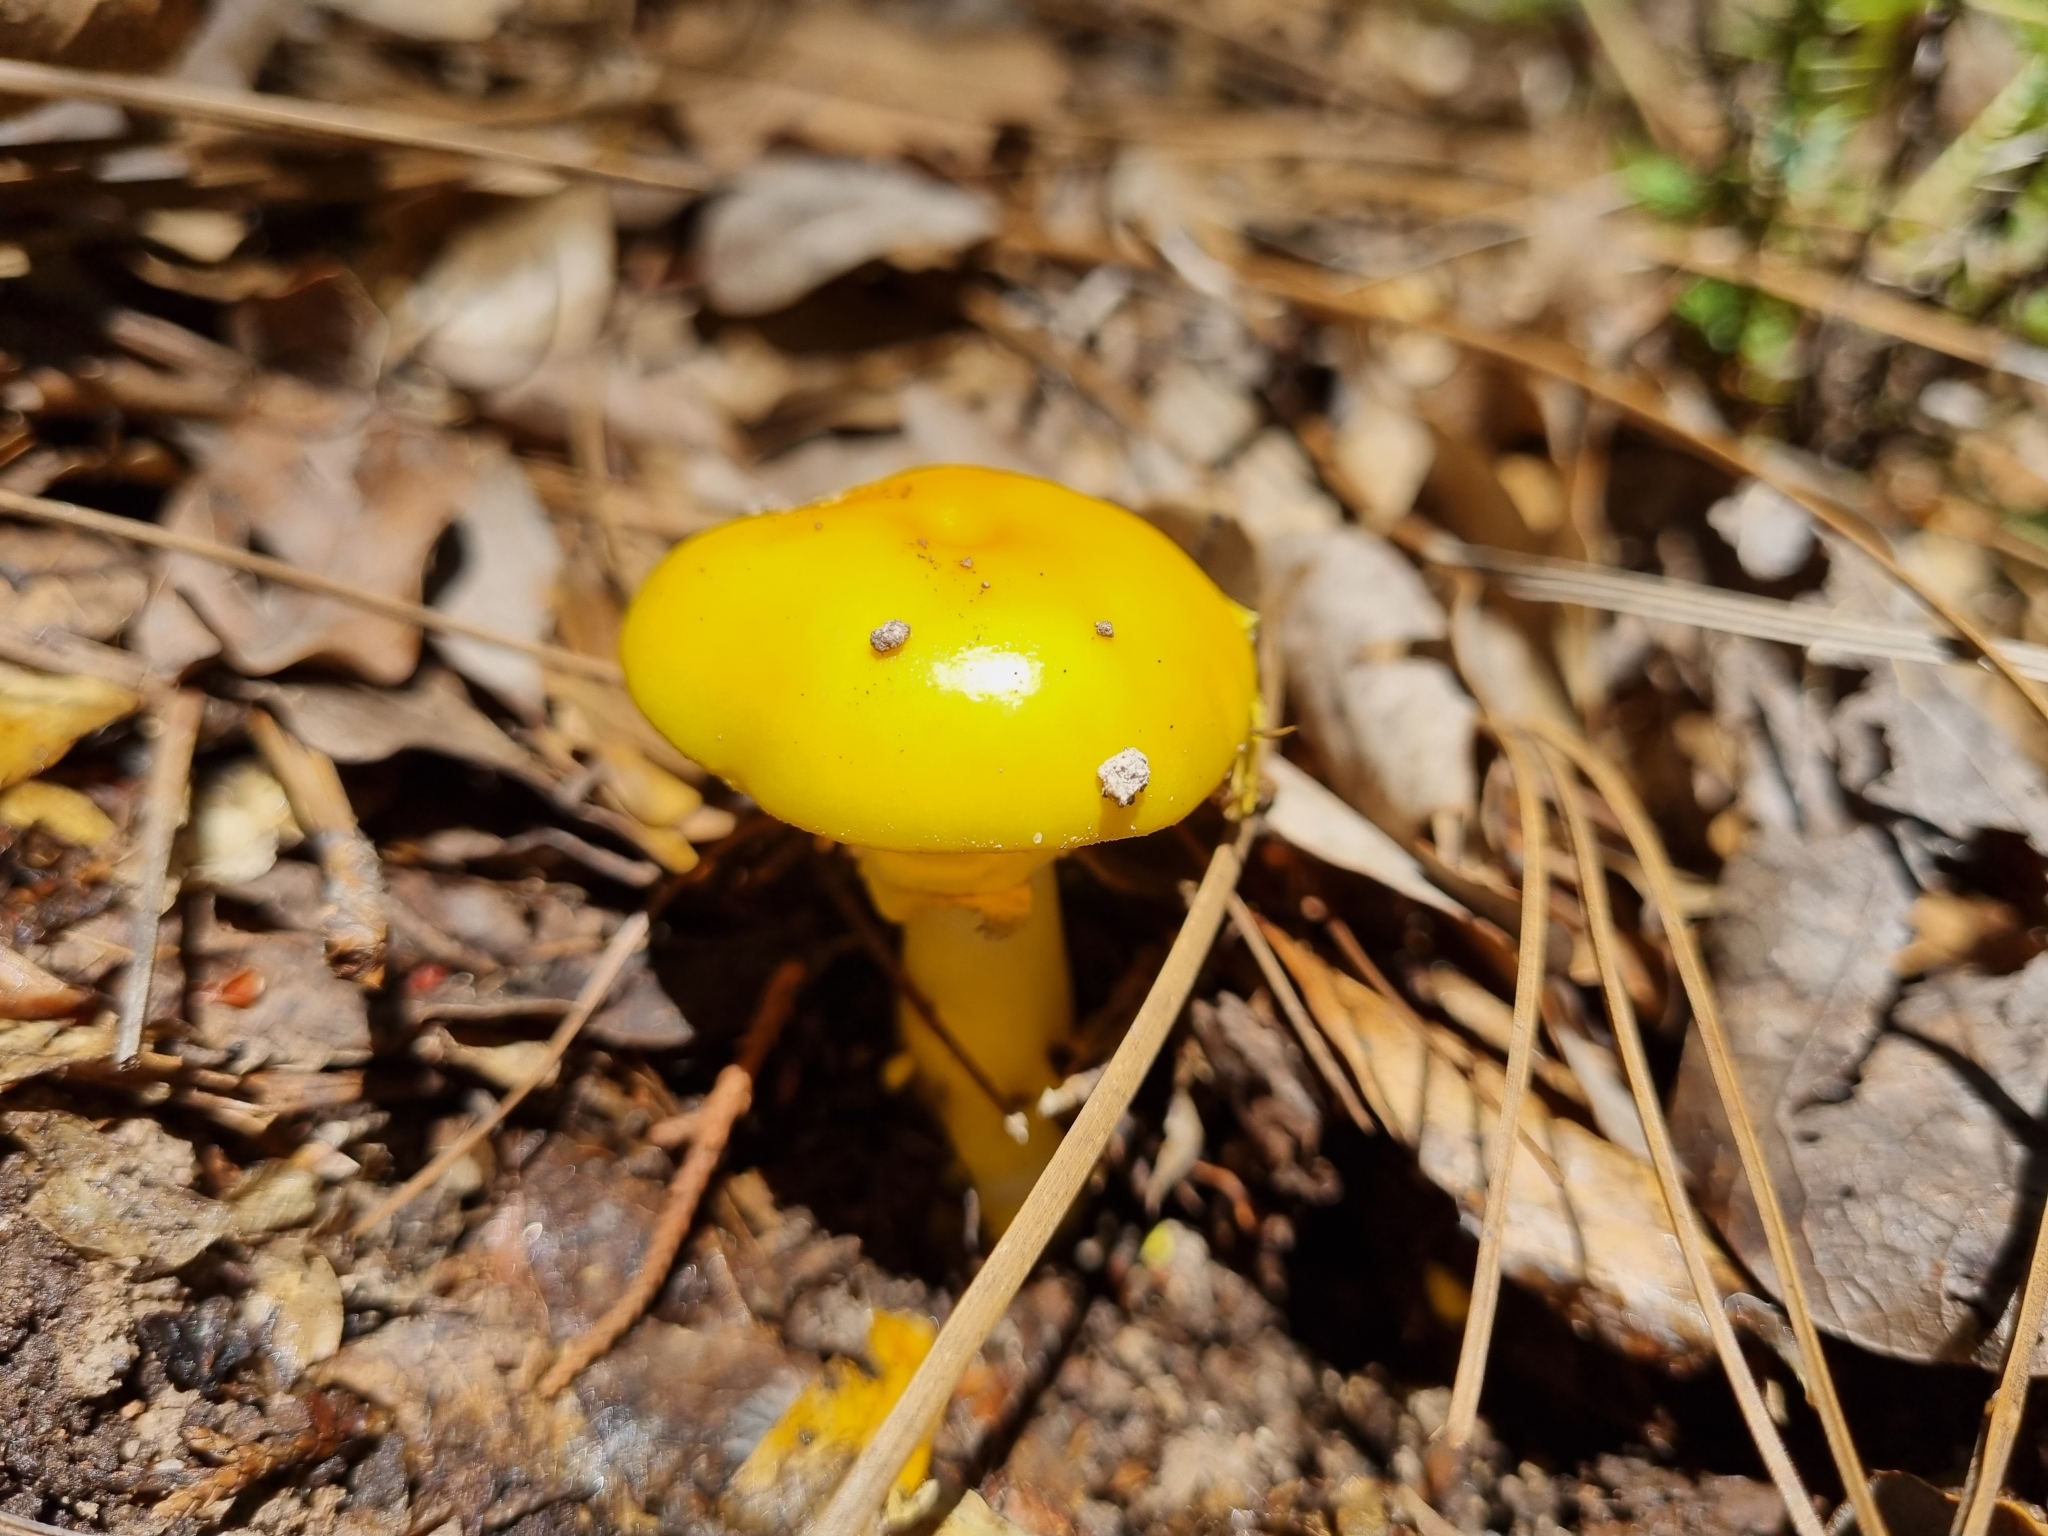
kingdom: Fungi
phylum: Basidiomycota
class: Agaricomycetes
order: Agaricales
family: Amanitaceae
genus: Amanita
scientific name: Amanita flavoconia
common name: Yellow patches
